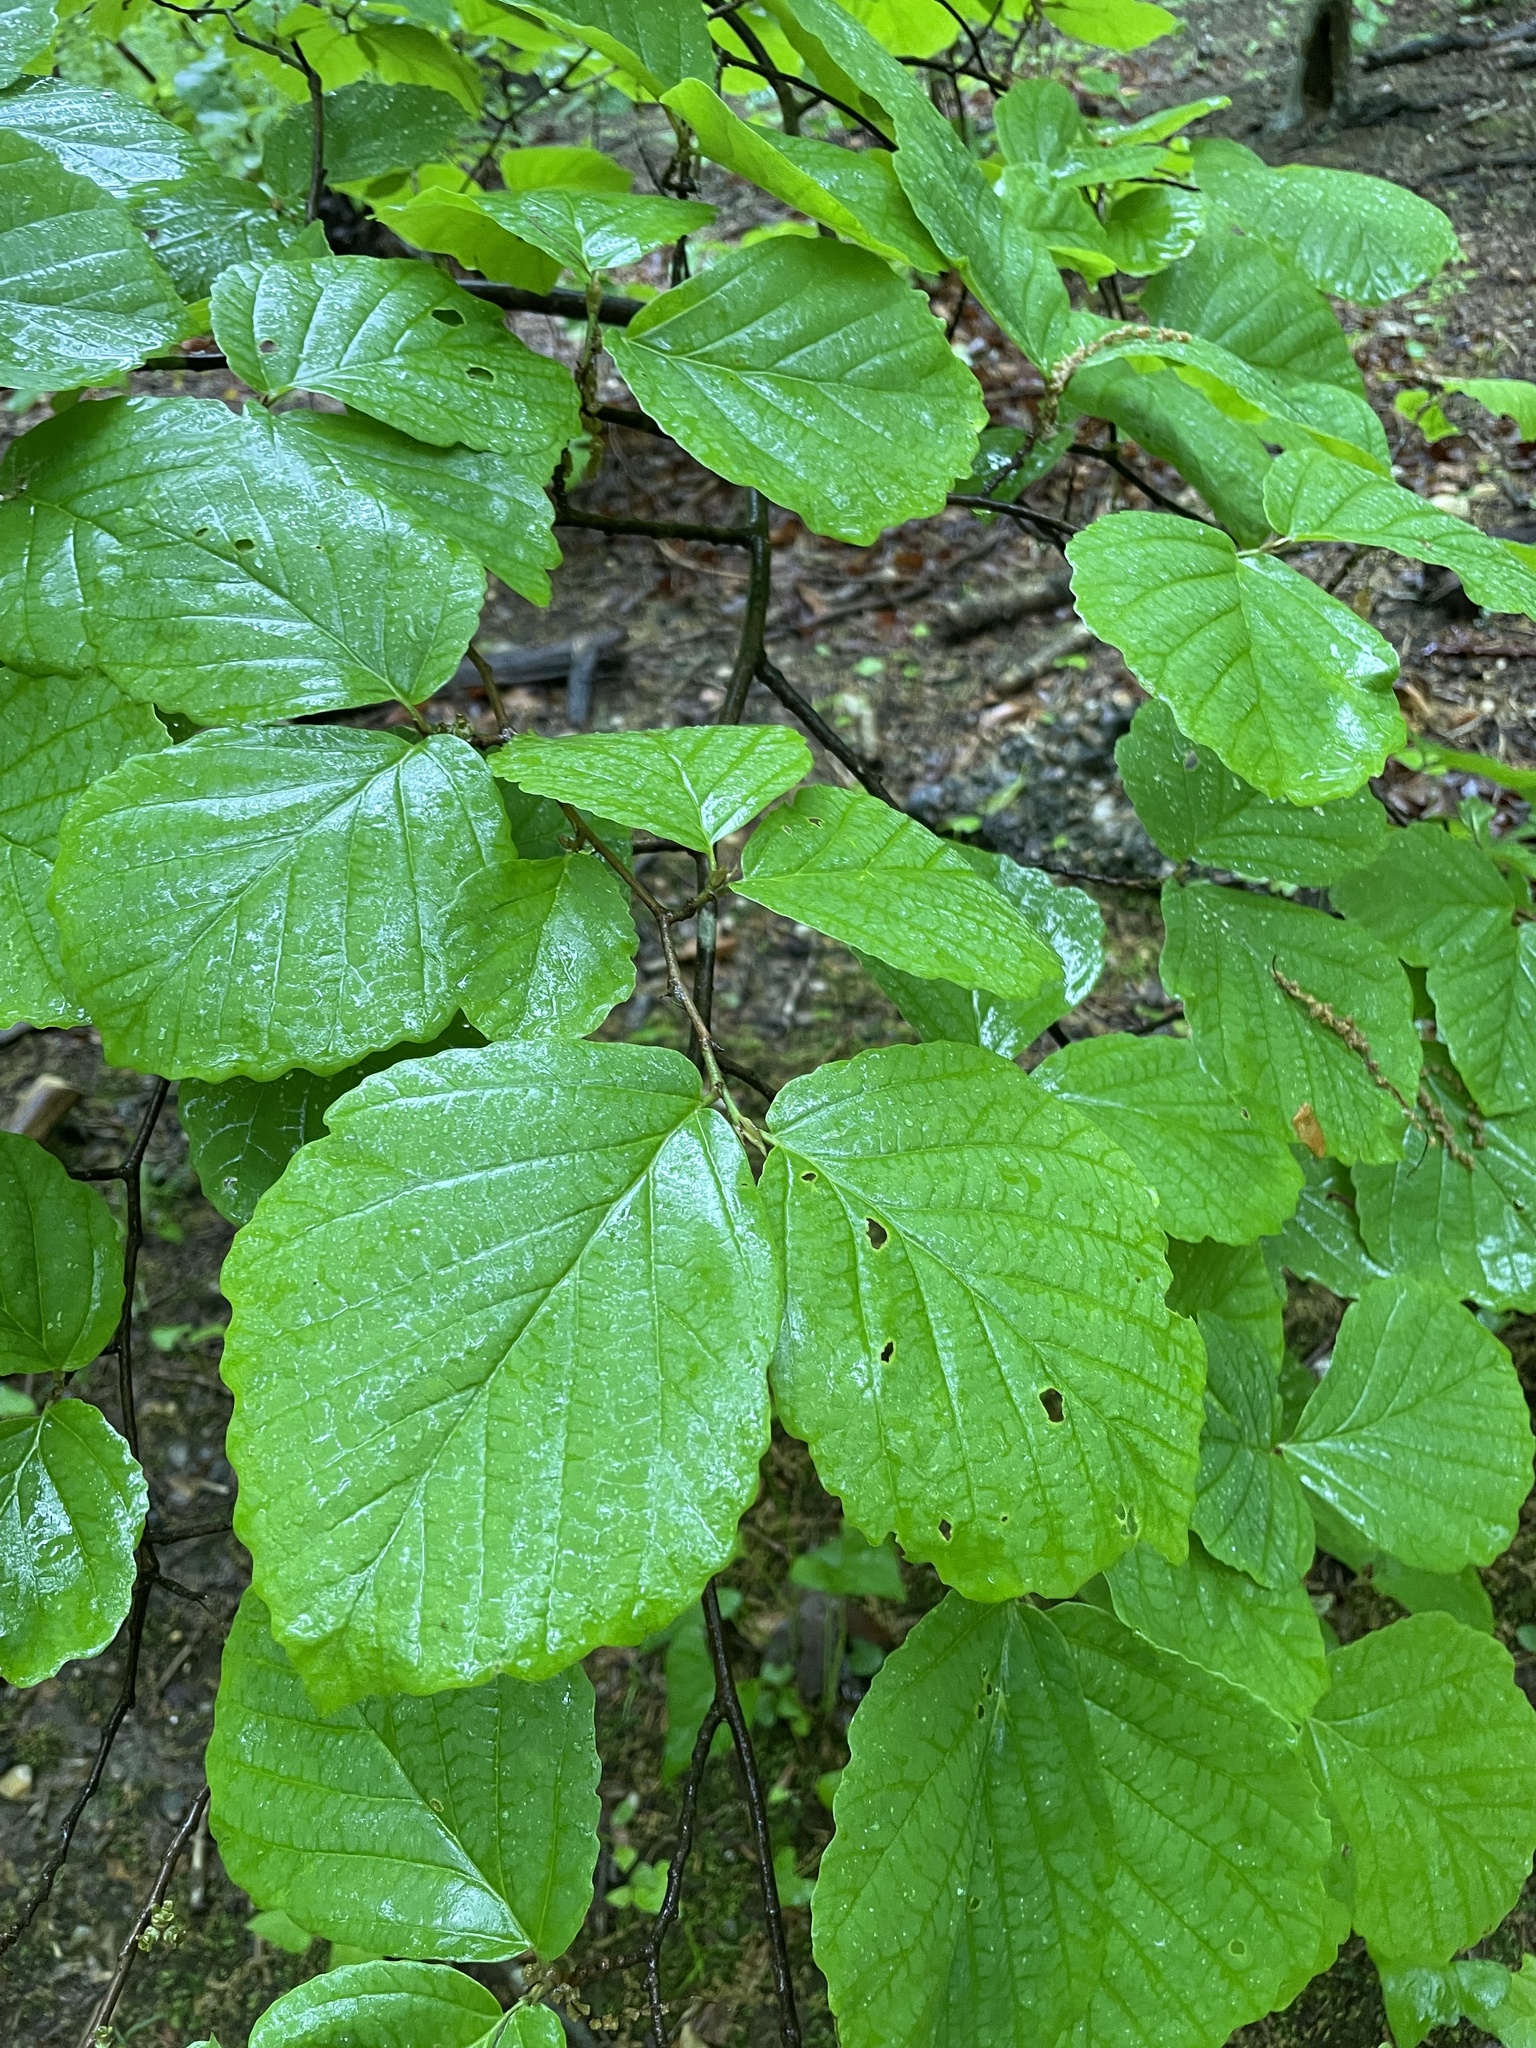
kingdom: Plantae
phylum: Tracheophyta
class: Magnoliopsida
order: Saxifragales
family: Hamamelidaceae
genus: Hamamelis
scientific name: Hamamelis virginiana
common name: Witch-hazel
